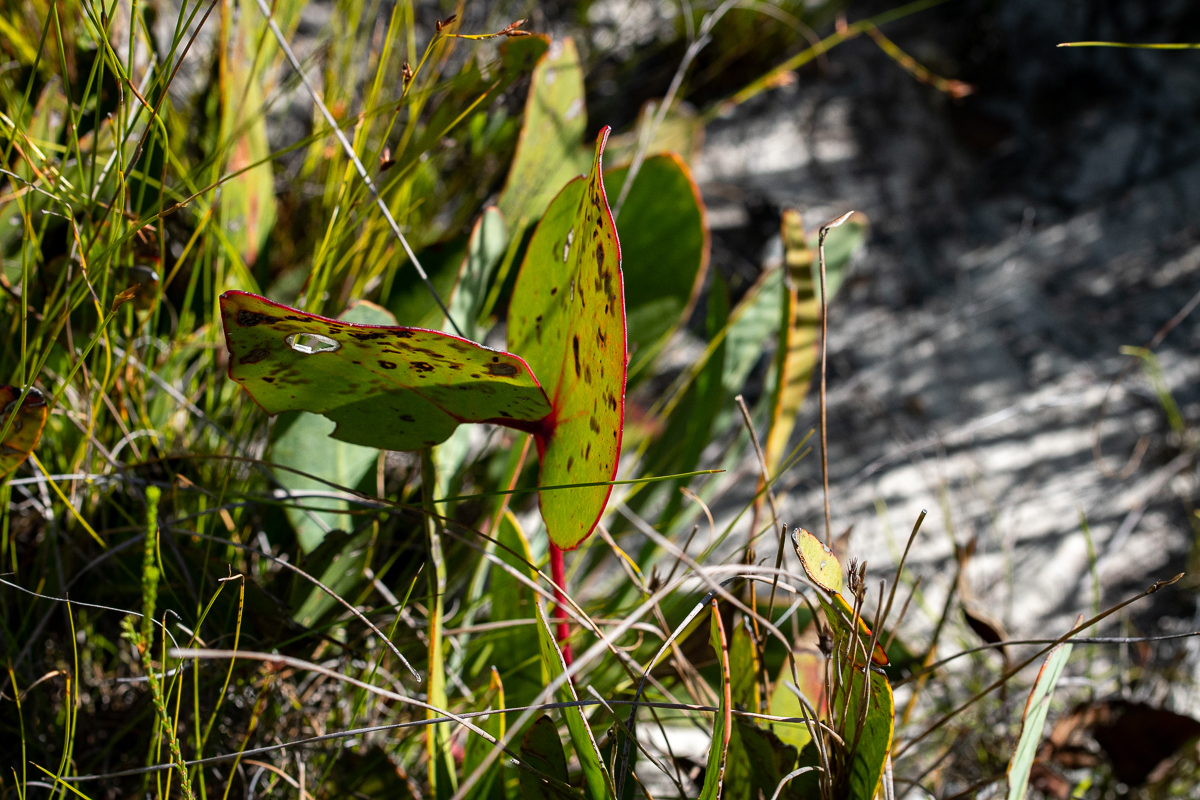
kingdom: Plantae
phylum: Tracheophyta
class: Magnoliopsida
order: Proteales
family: Proteaceae
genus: Protea
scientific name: Protea cordata
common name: Heart-leaf sugarbush
